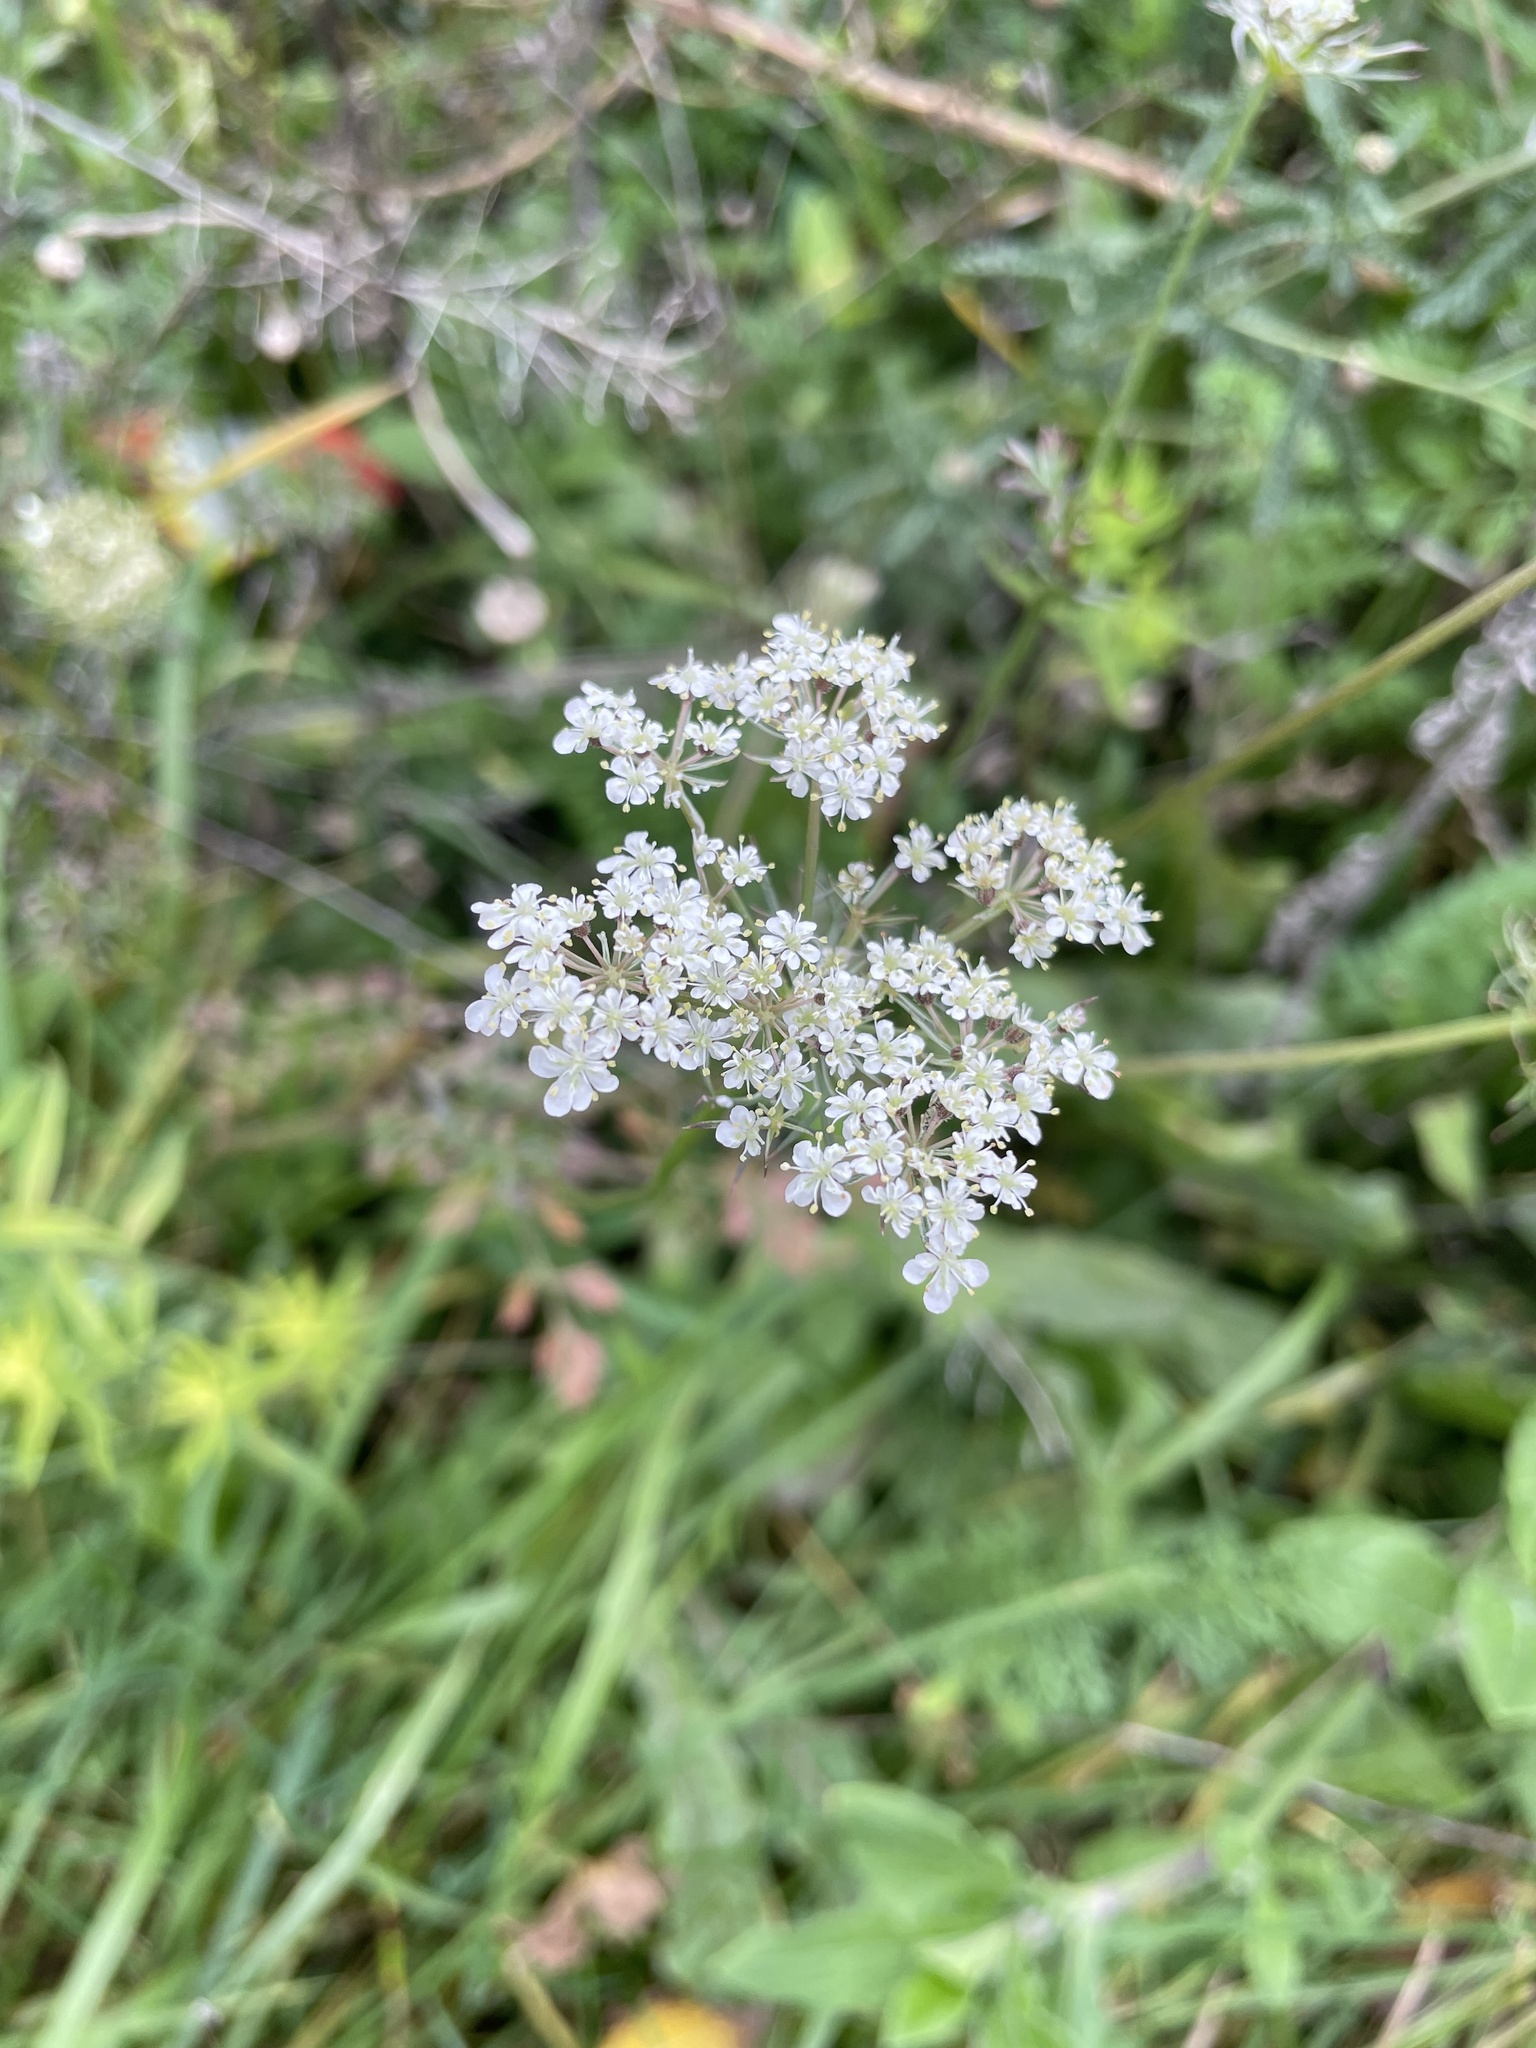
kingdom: Plantae
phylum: Tracheophyta
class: Magnoliopsida
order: Apiales
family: Apiaceae
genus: Daucus
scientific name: Daucus carota
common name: Wild carrot
